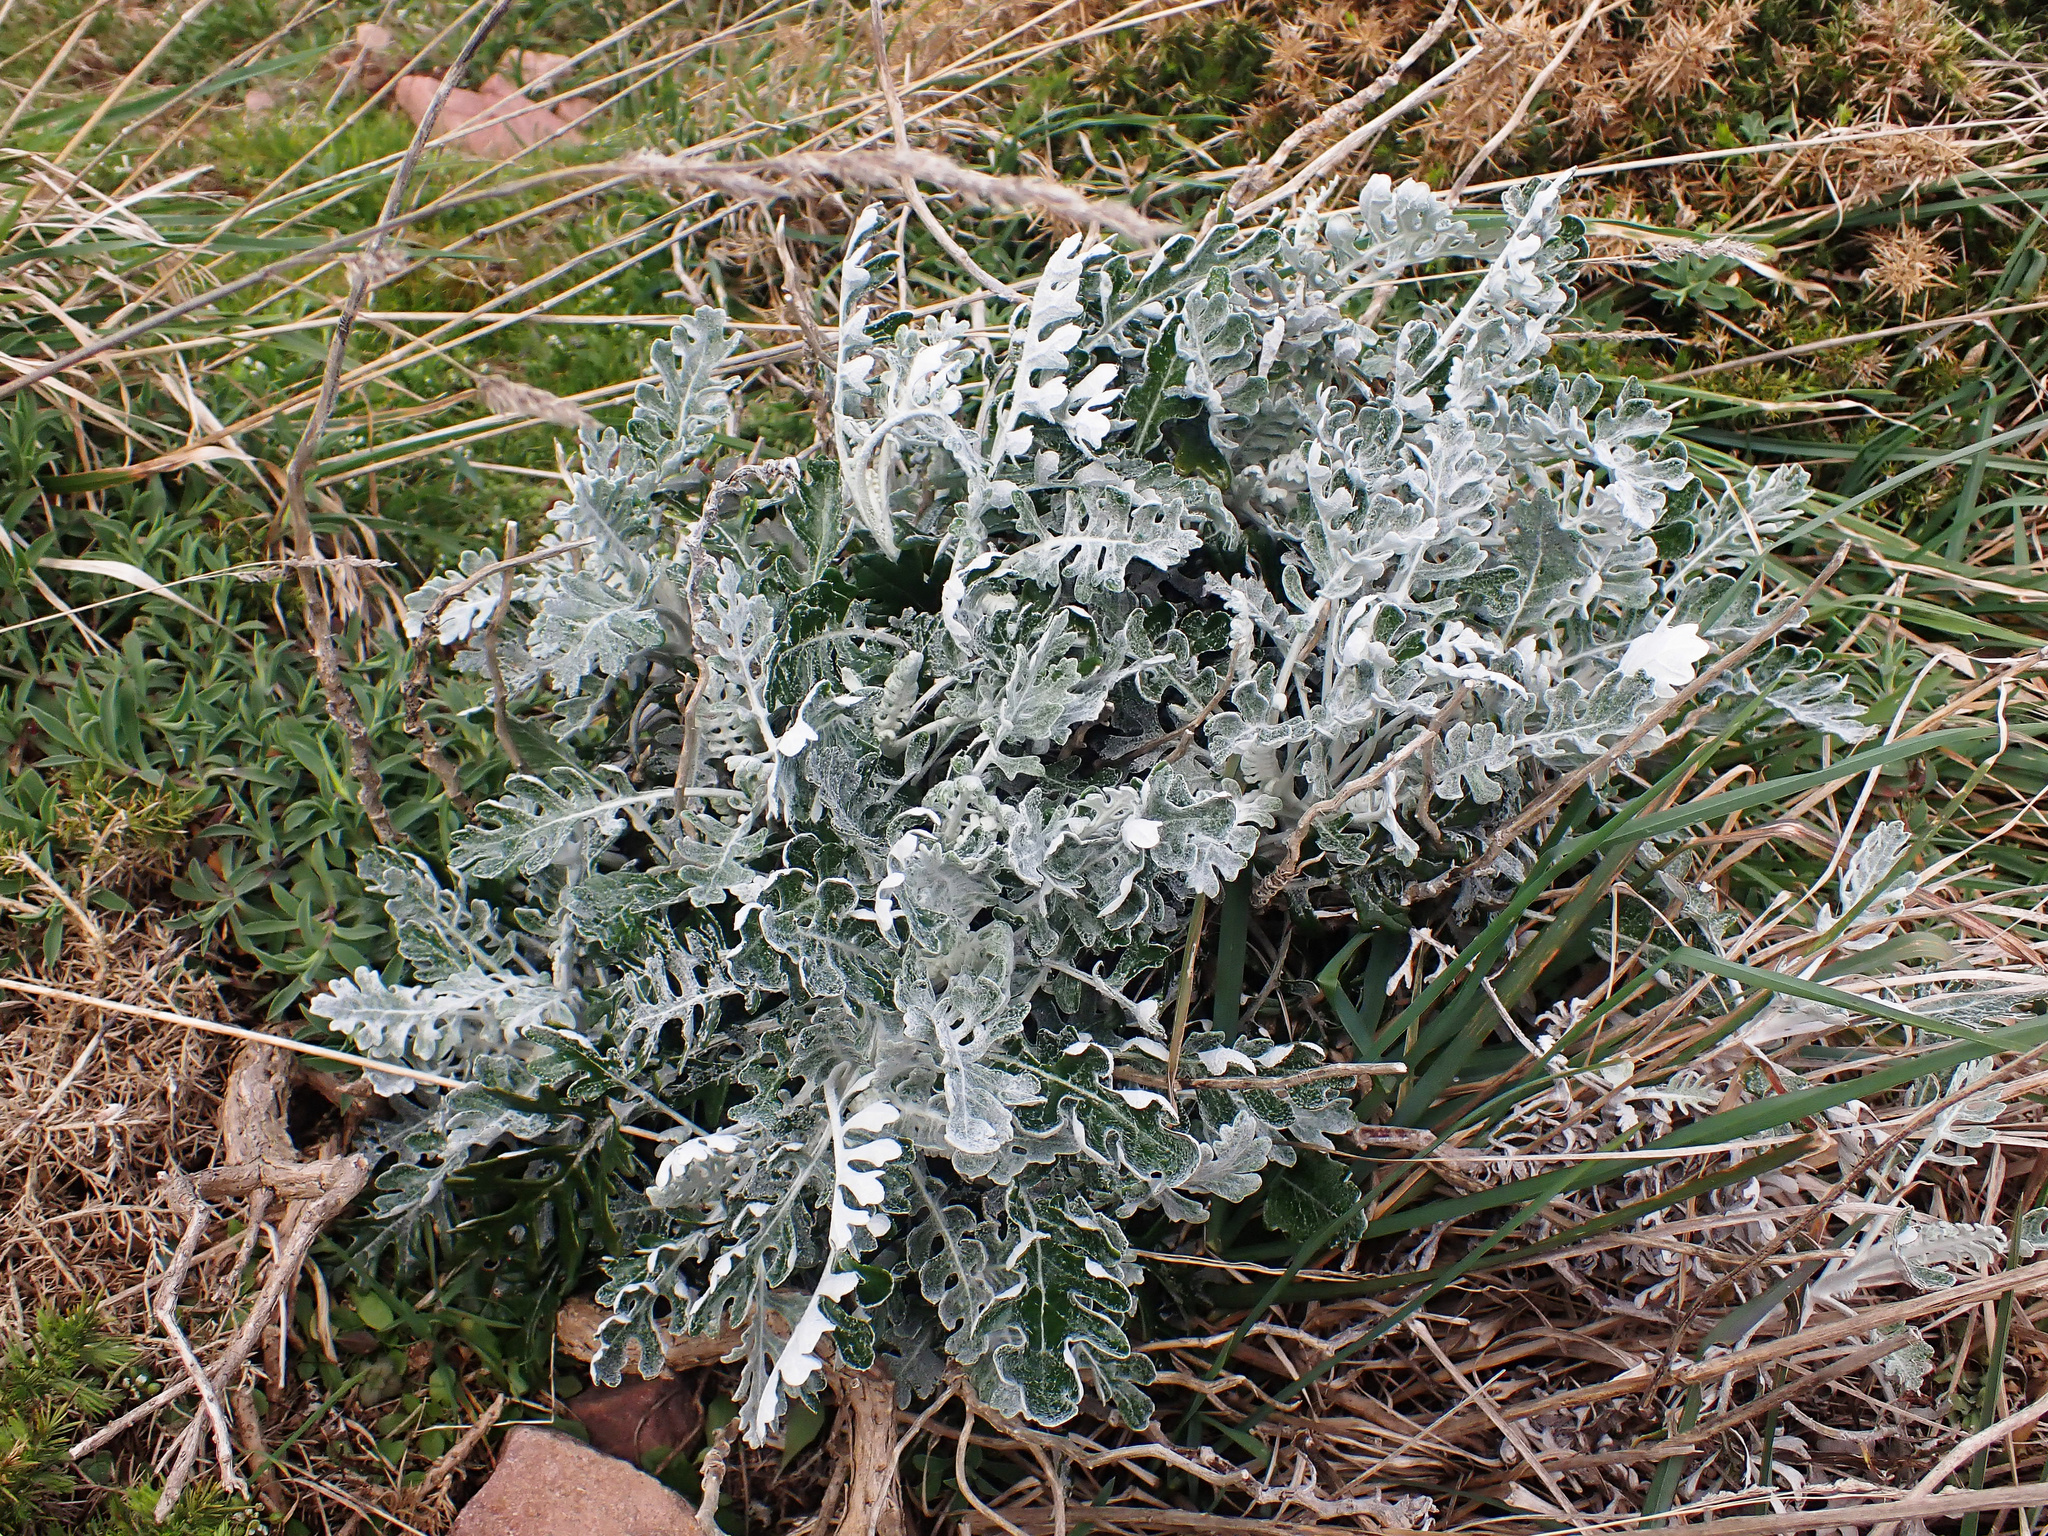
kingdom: Plantae
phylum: Tracheophyta
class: Magnoliopsida
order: Asterales
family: Asteraceae
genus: Jacobaea
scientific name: Jacobaea maritima
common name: Silver ragwort
